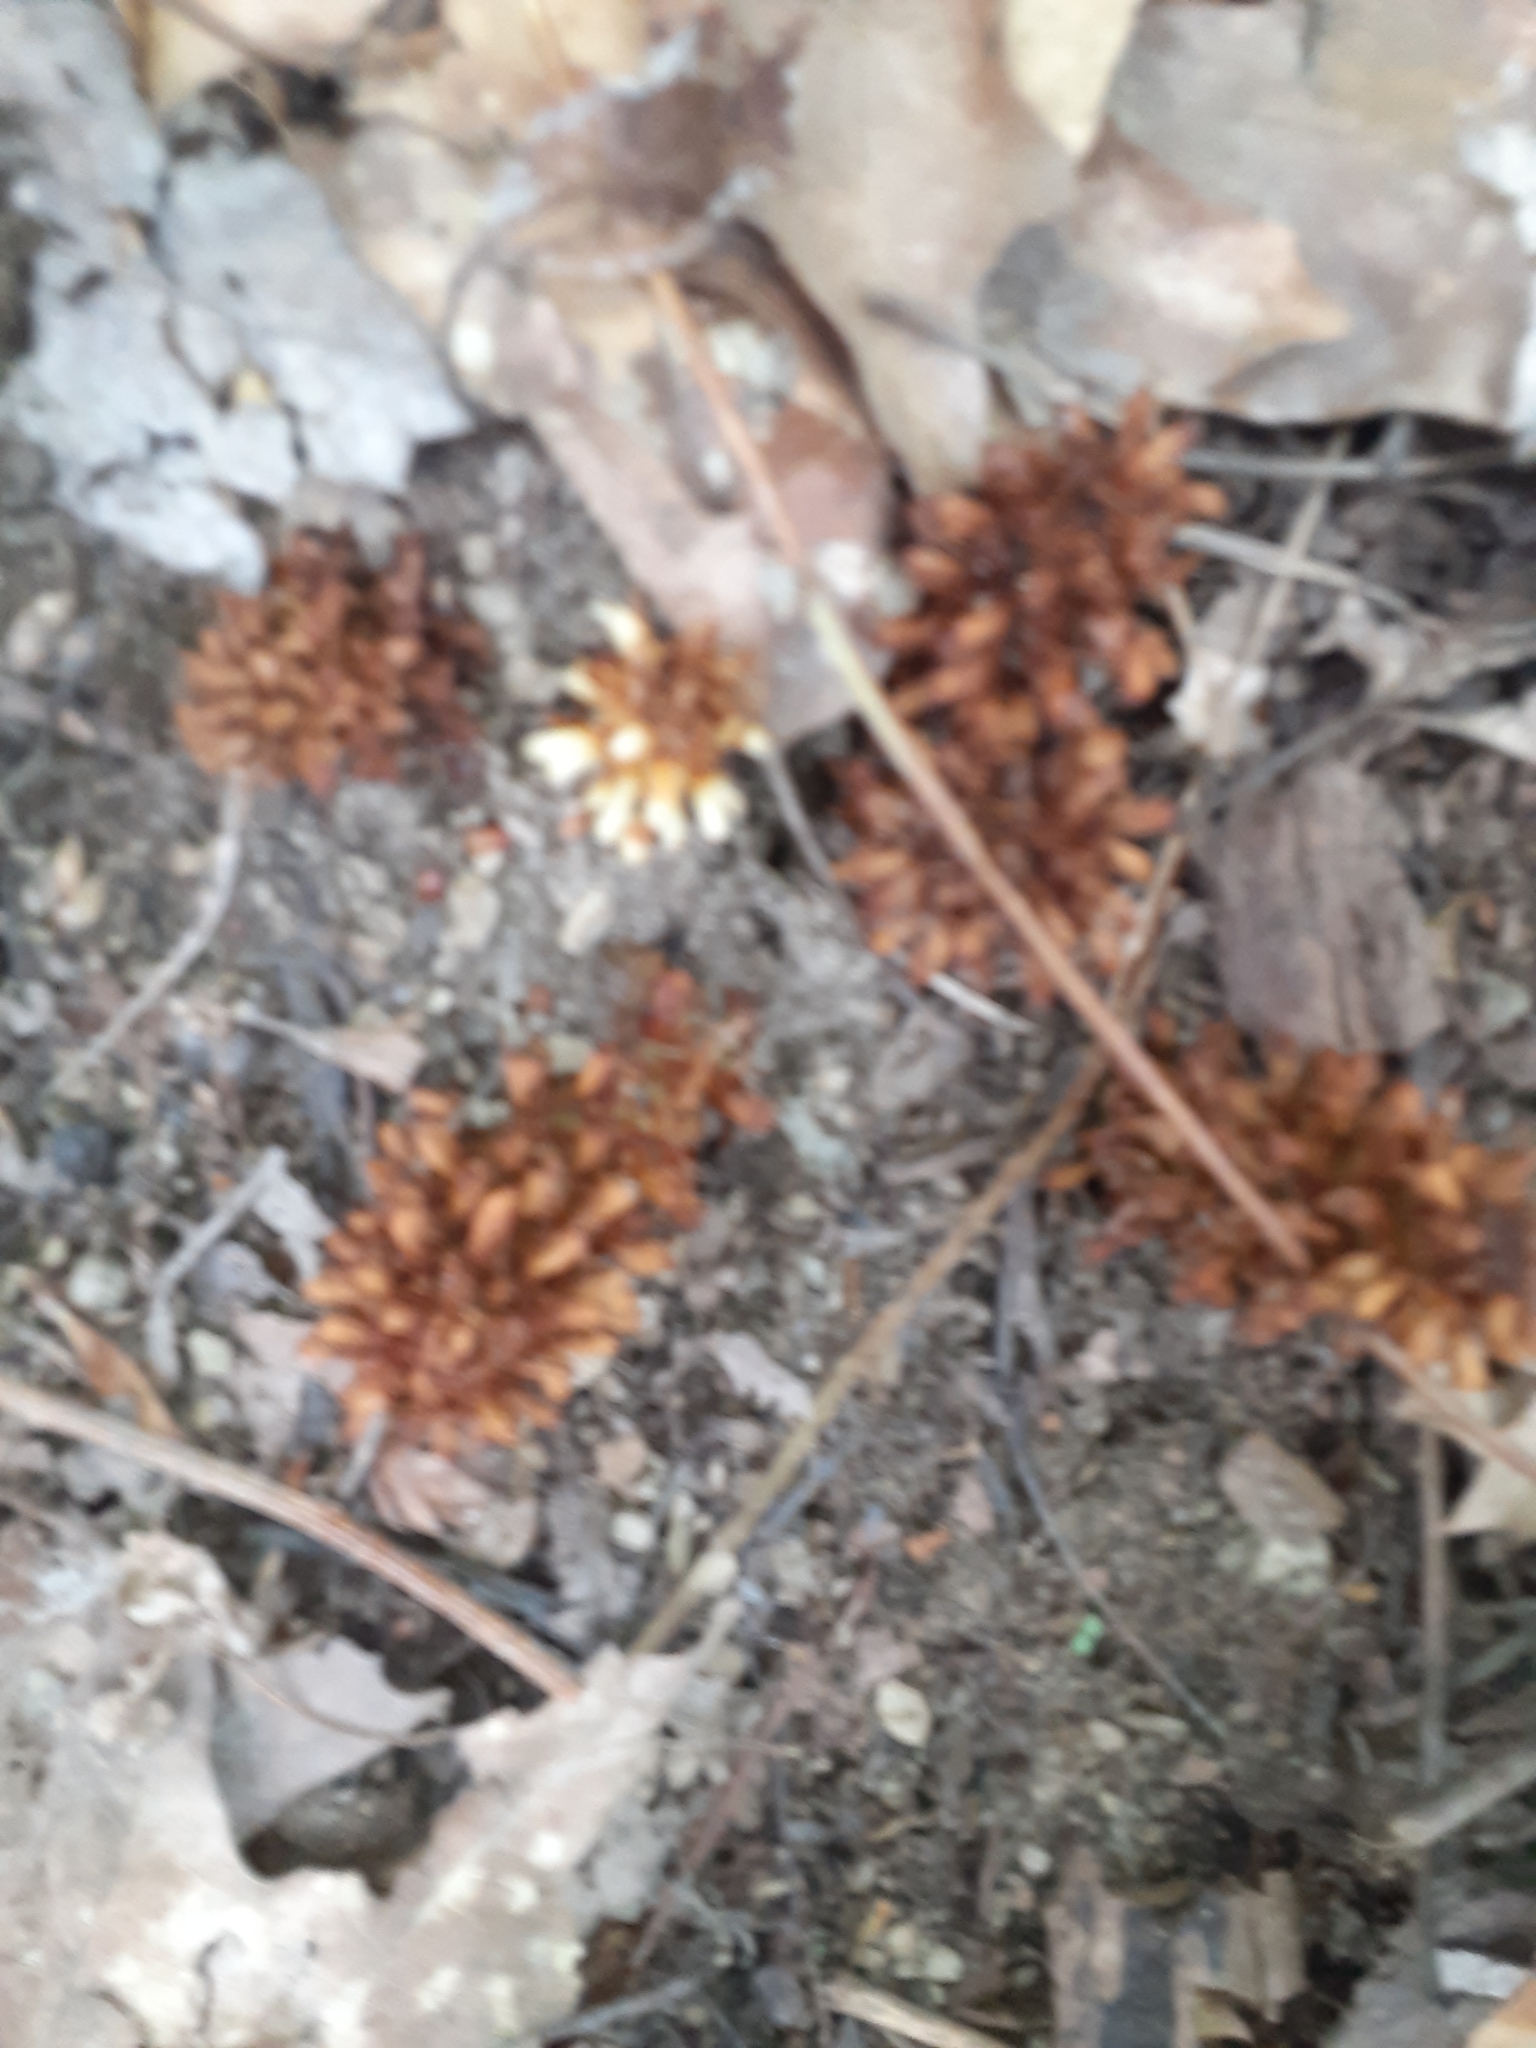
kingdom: Plantae
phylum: Tracheophyta
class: Magnoliopsida
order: Lamiales
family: Orobanchaceae
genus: Conopholis
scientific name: Conopholis americana
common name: American cancer-root
